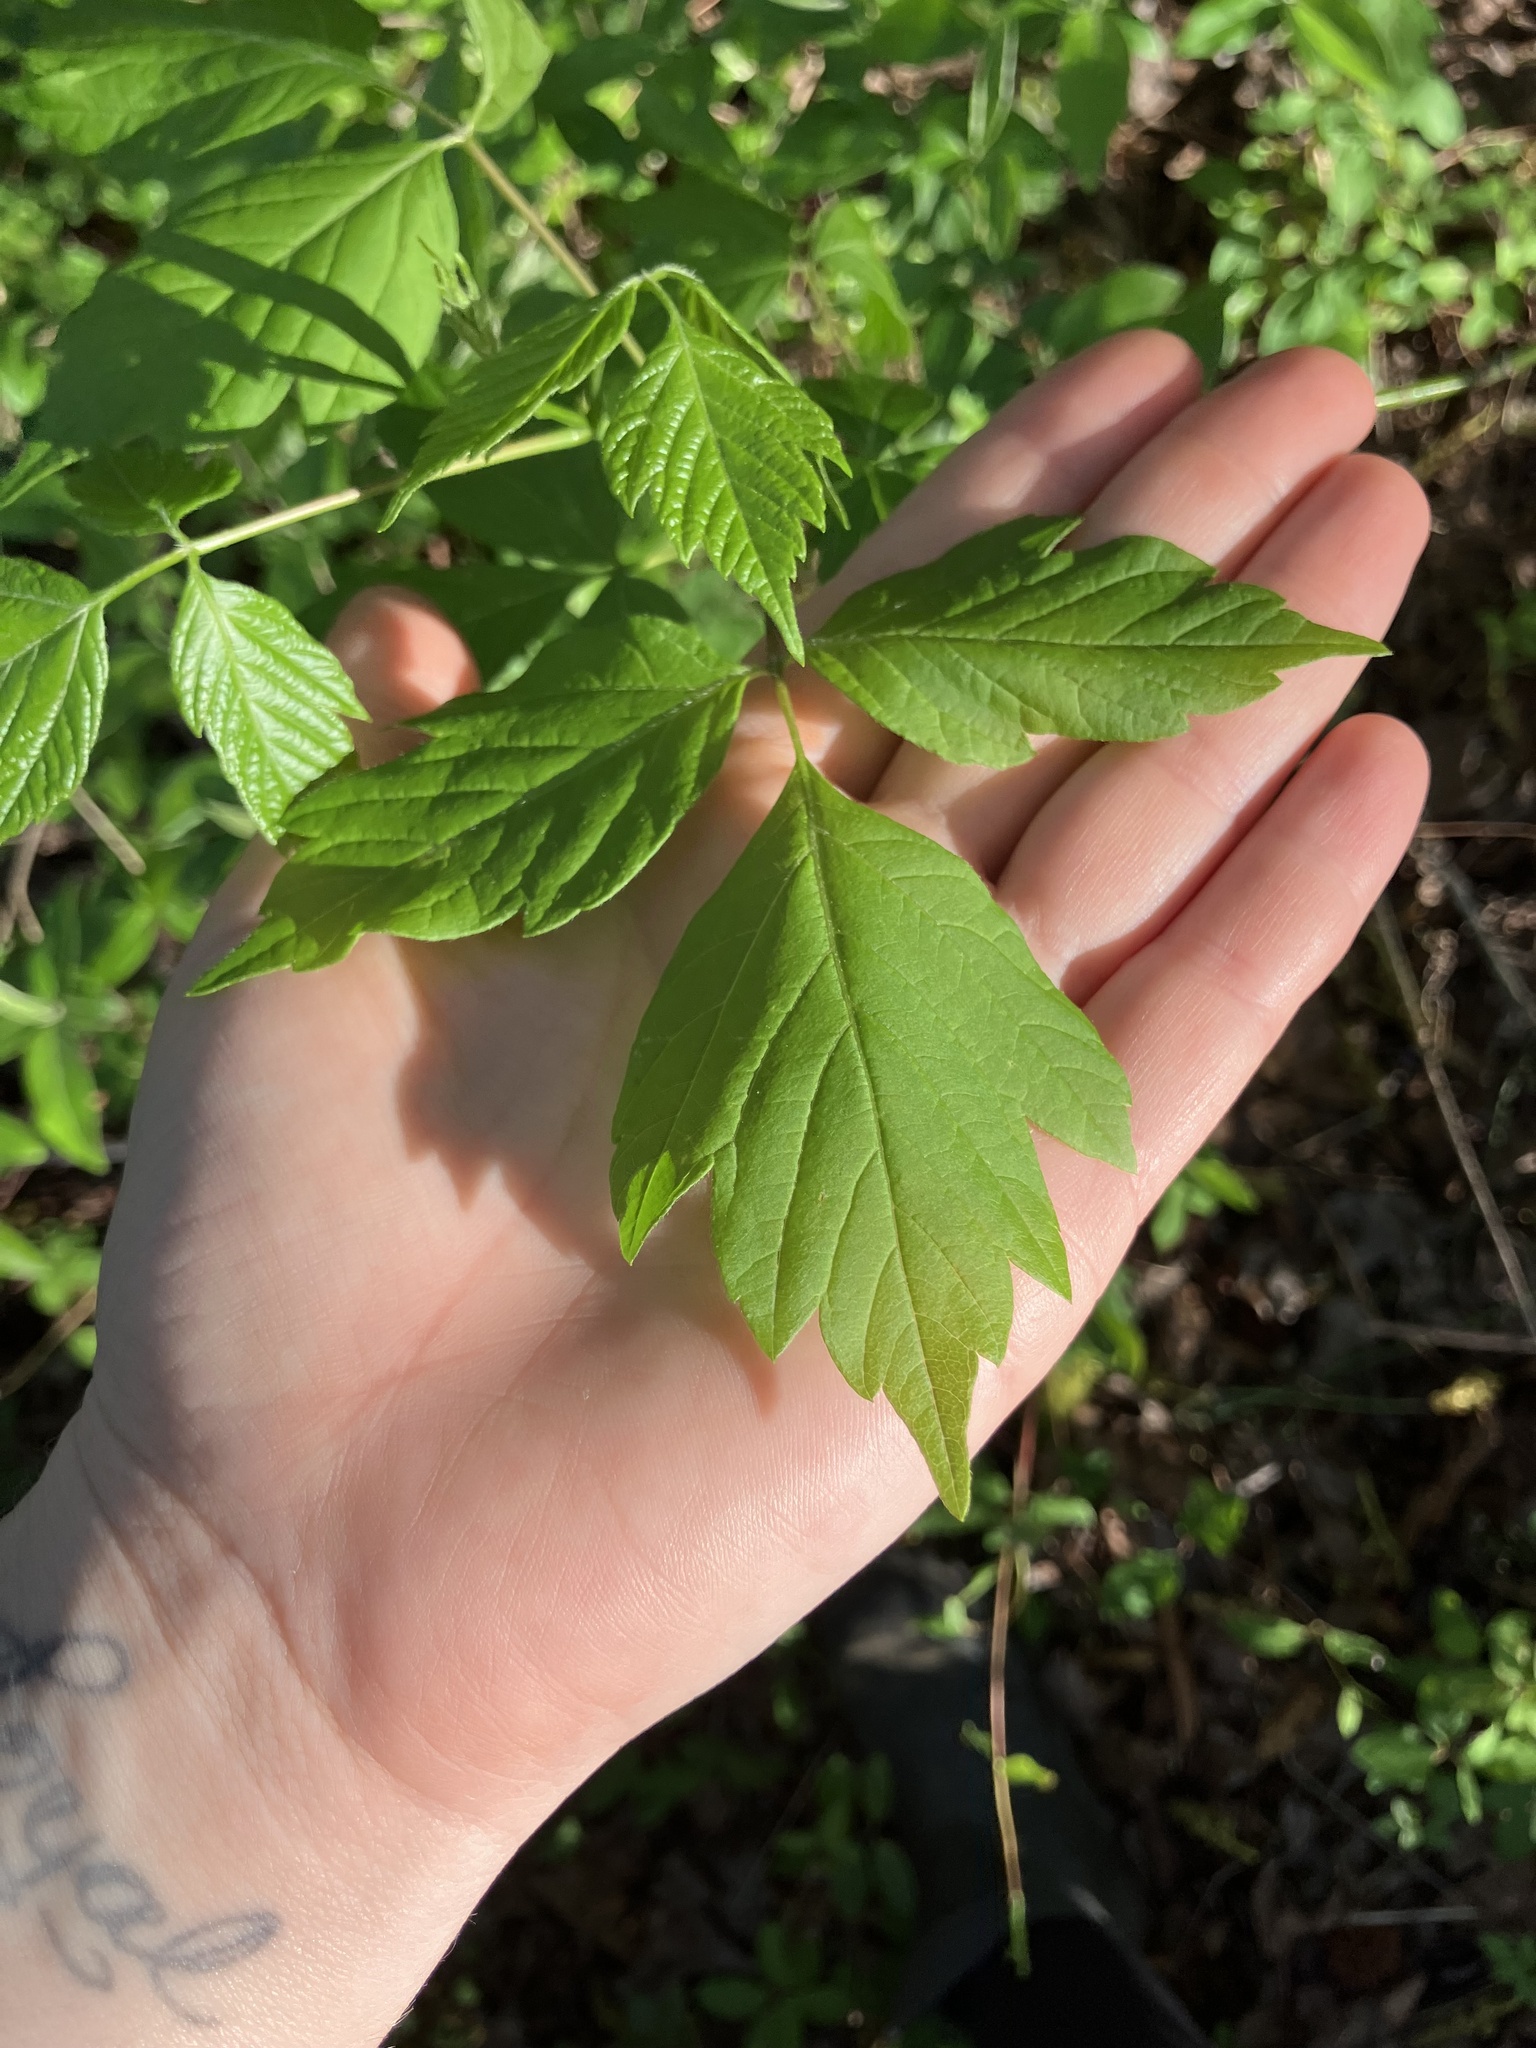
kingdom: Plantae
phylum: Tracheophyta
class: Magnoliopsida
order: Sapindales
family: Sapindaceae
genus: Acer
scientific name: Acer negundo
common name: Ashleaf maple
